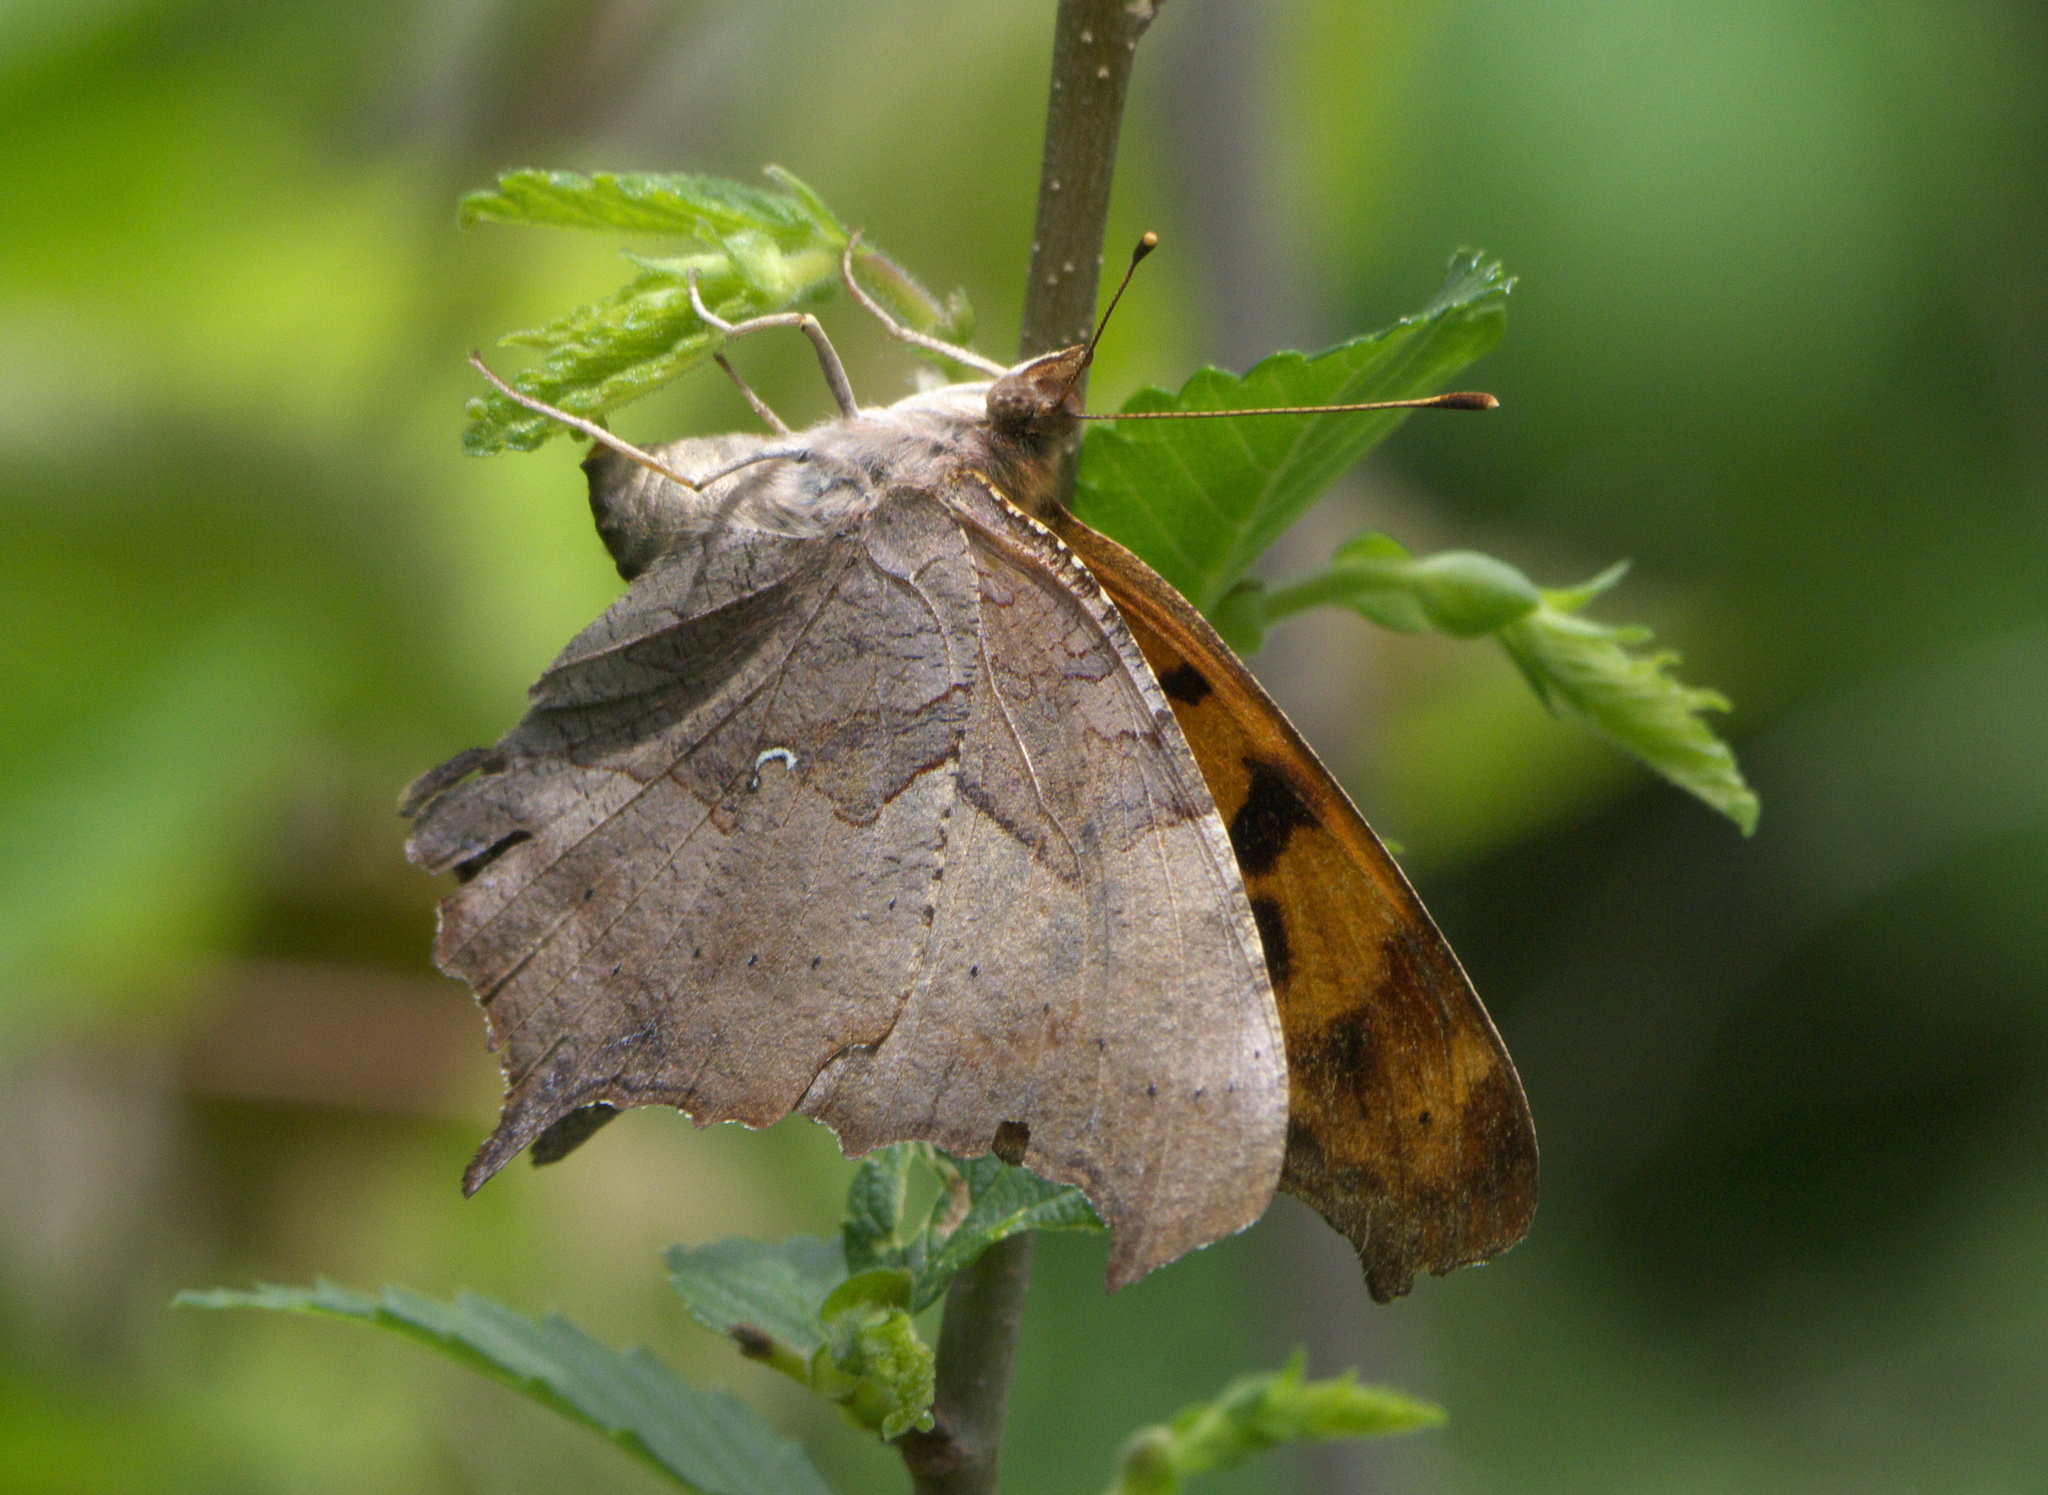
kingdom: Animalia
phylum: Arthropoda
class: Insecta
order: Lepidoptera
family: Nymphalidae
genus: Polygonia
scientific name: Polygonia interrogationis
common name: Question mark
